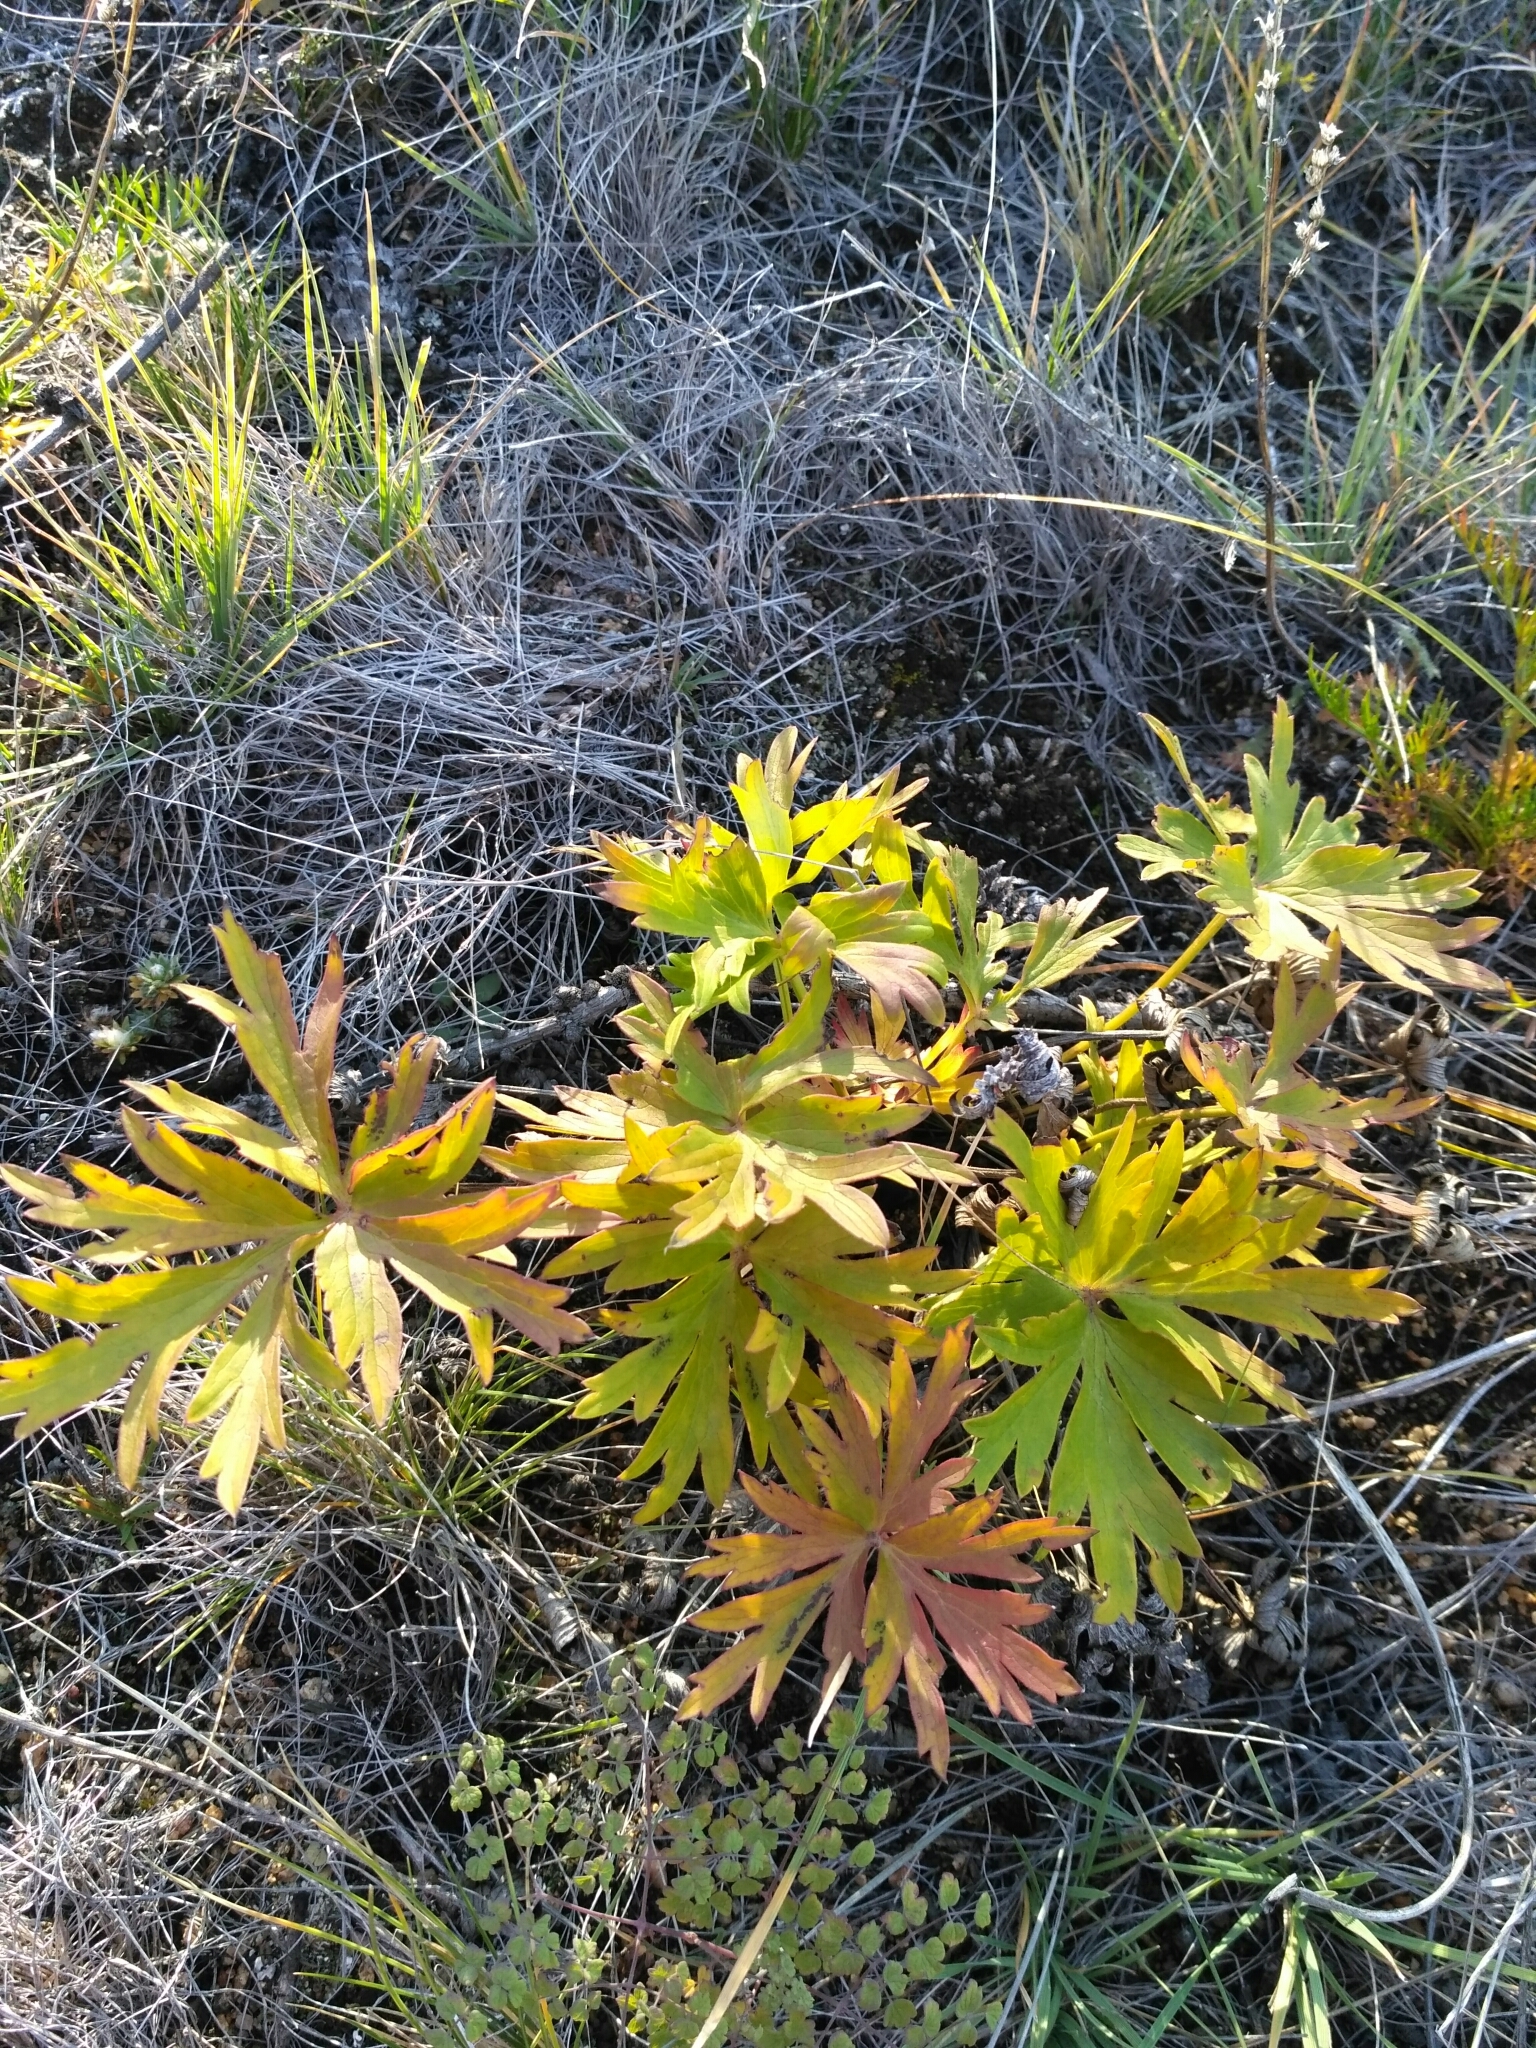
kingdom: Plantae
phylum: Tracheophyta
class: Magnoliopsida
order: Ranunculales
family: Ranunculaceae
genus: Pulsatilla
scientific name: Pulsatilla nuttalliana
